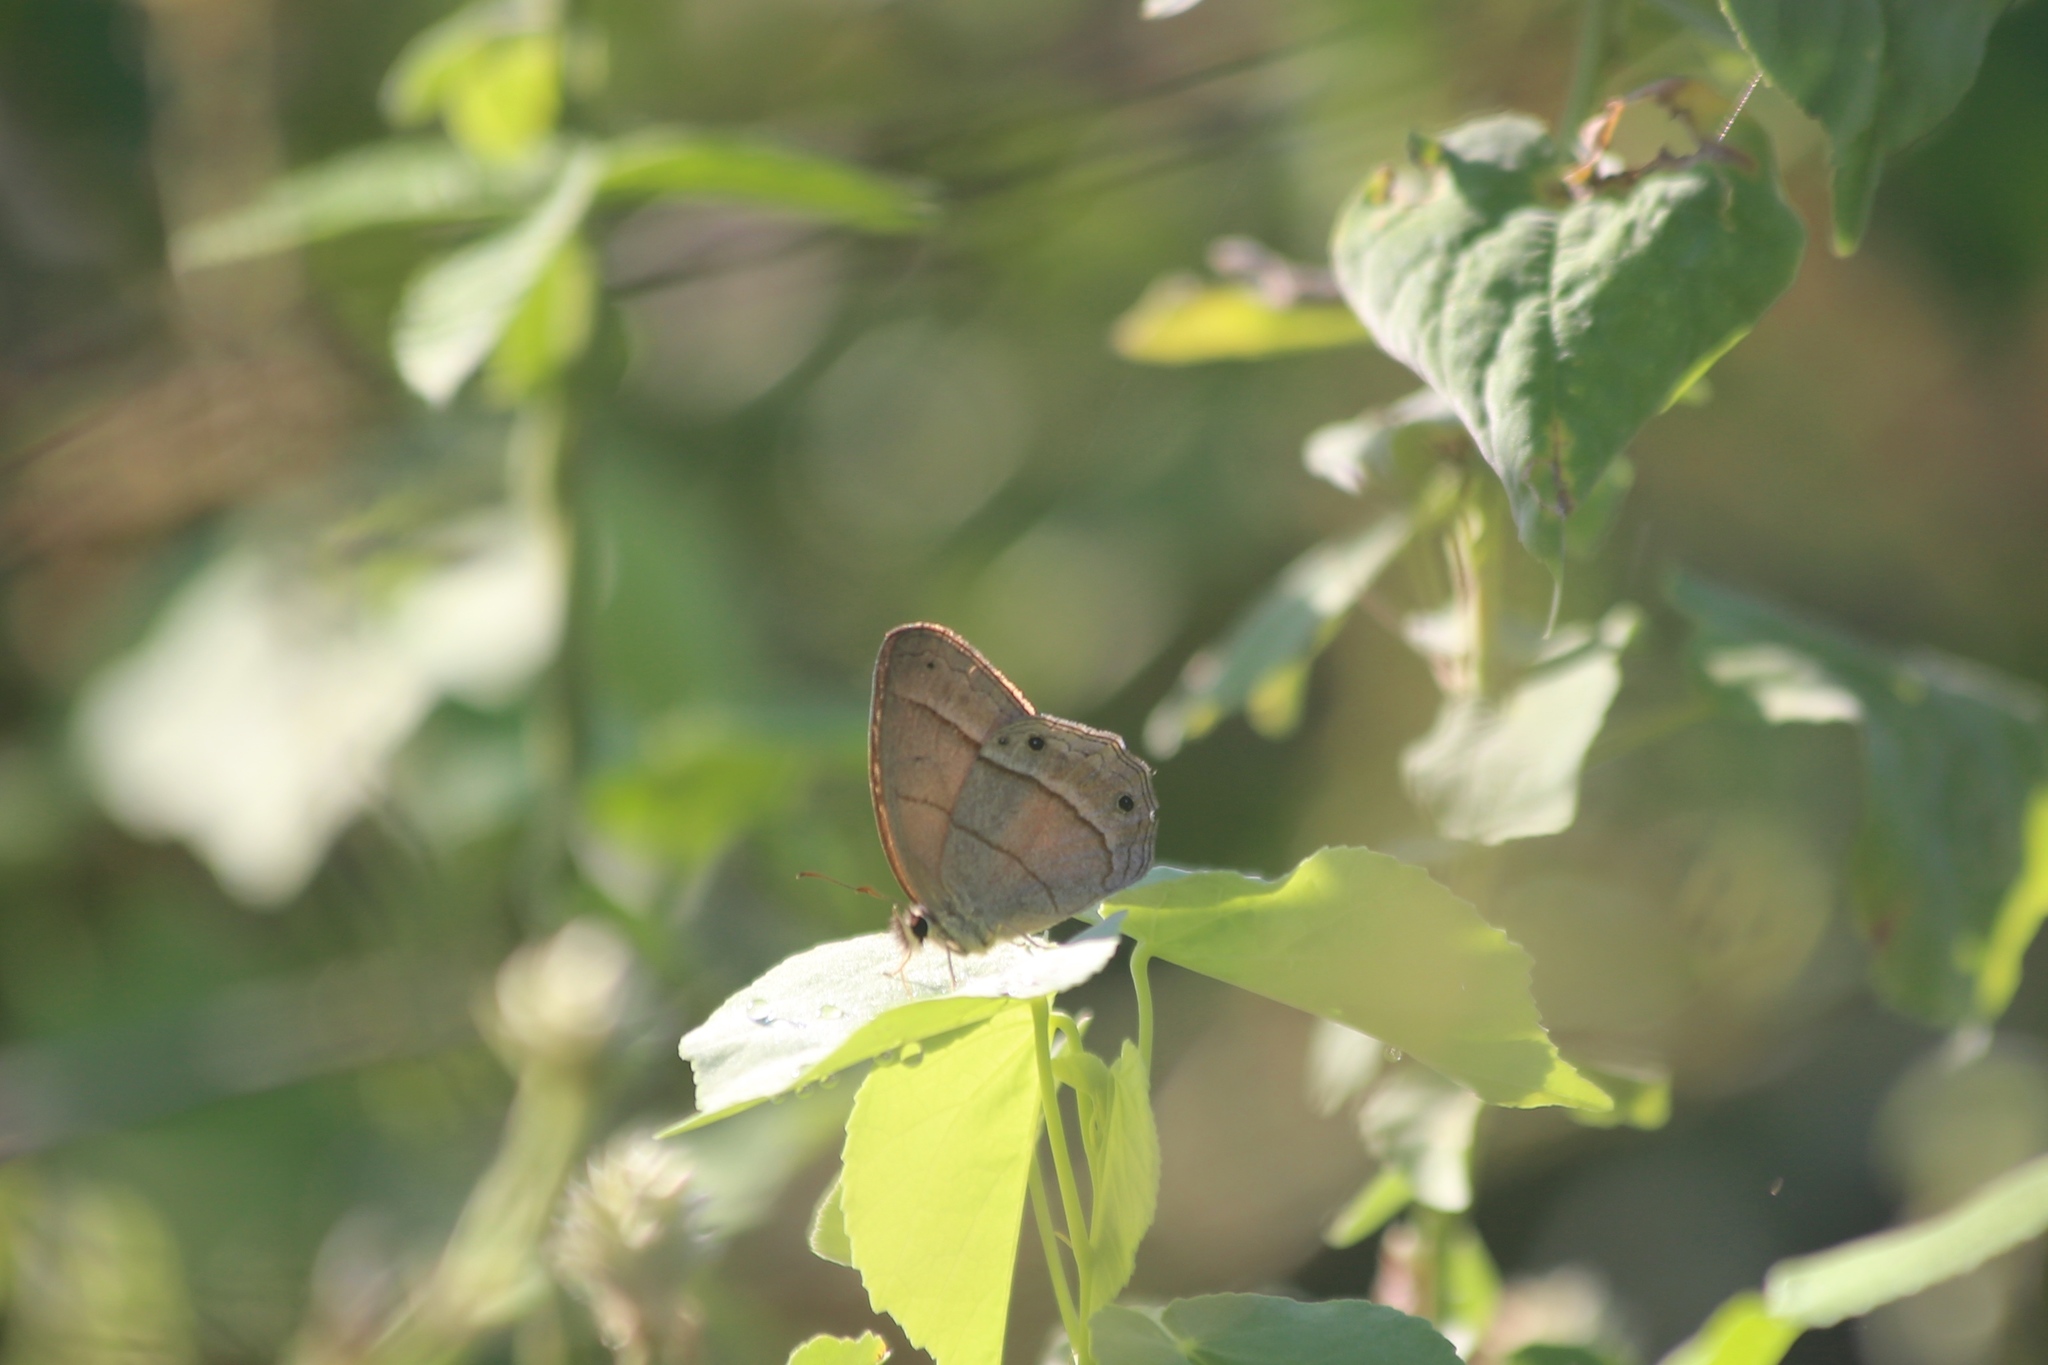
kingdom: Animalia
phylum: Arthropoda
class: Insecta
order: Lepidoptera
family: Nymphalidae
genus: Euptychia
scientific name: Euptychia Cissia pompilia
